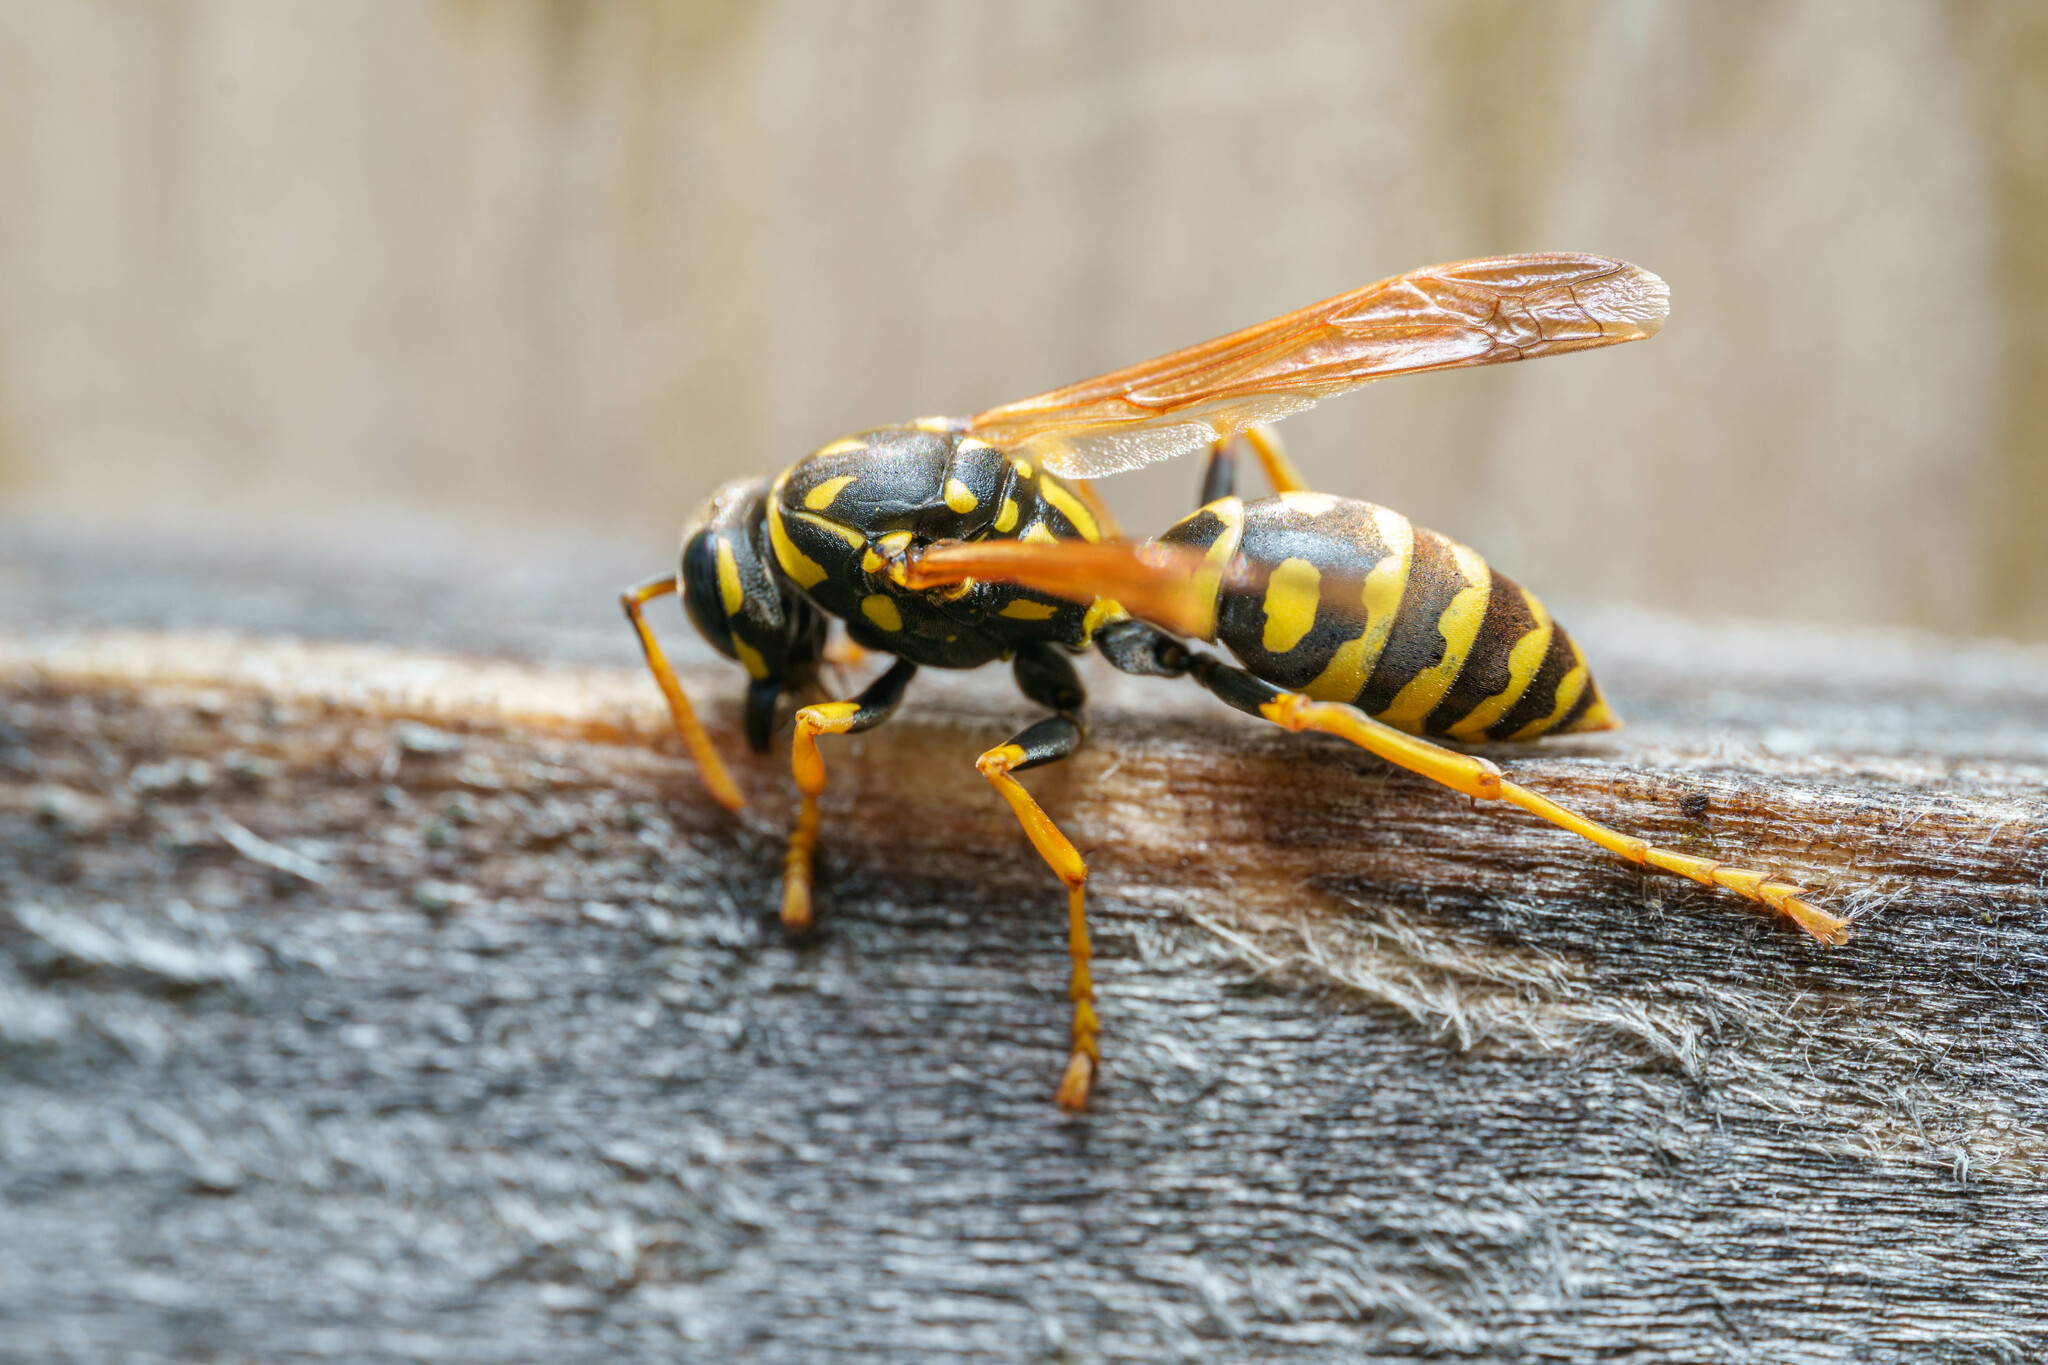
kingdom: Animalia
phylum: Arthropoda
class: Insecta
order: Hymenoptera
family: Eumenidae
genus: Polistes
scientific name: Polistes dominula
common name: Paper wasp
